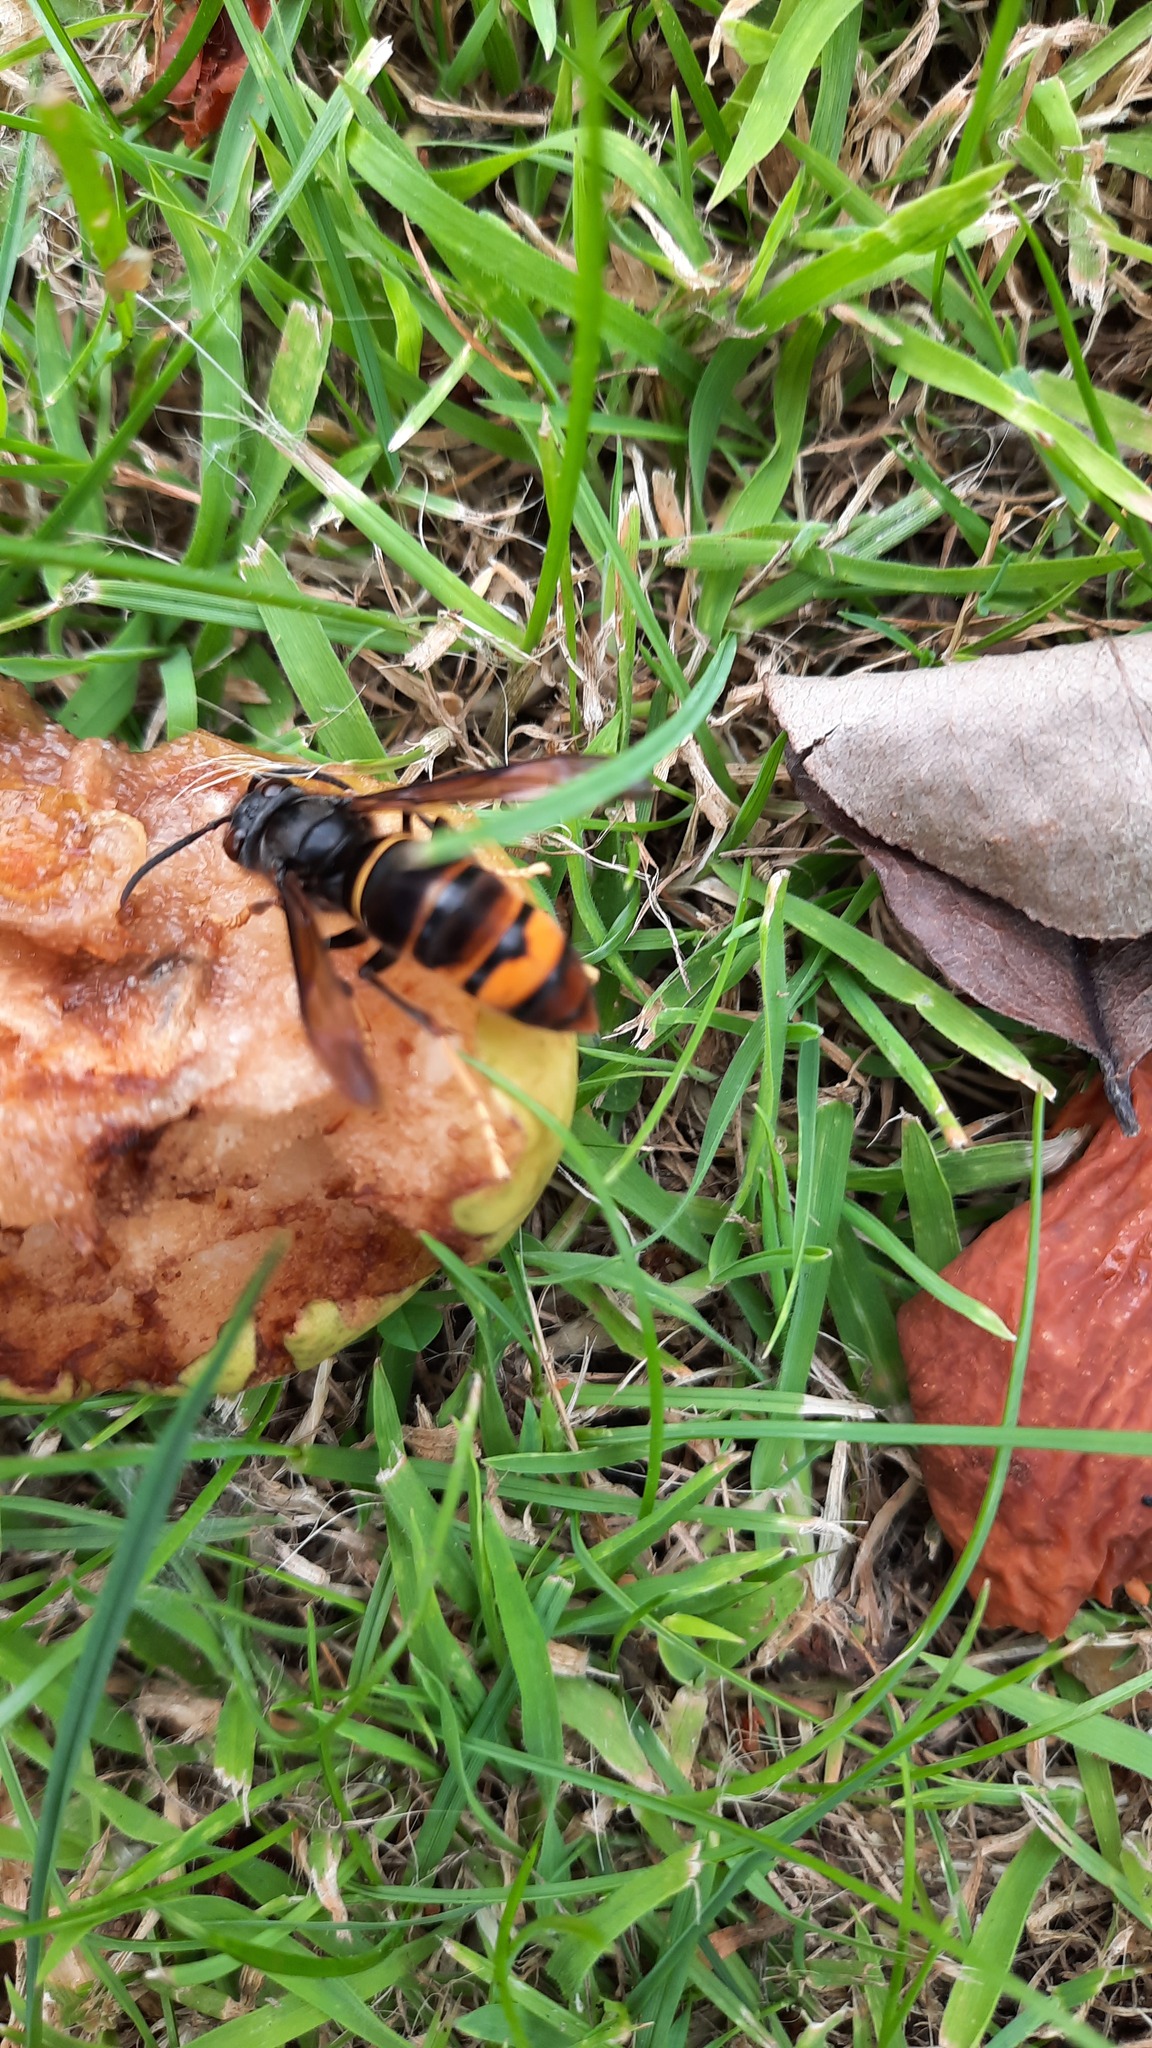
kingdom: Animalia
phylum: Arthropoda
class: Insecta
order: Hymenoptera
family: Vespidae
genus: Vespa
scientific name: Vespa velutina
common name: Asian hornet
